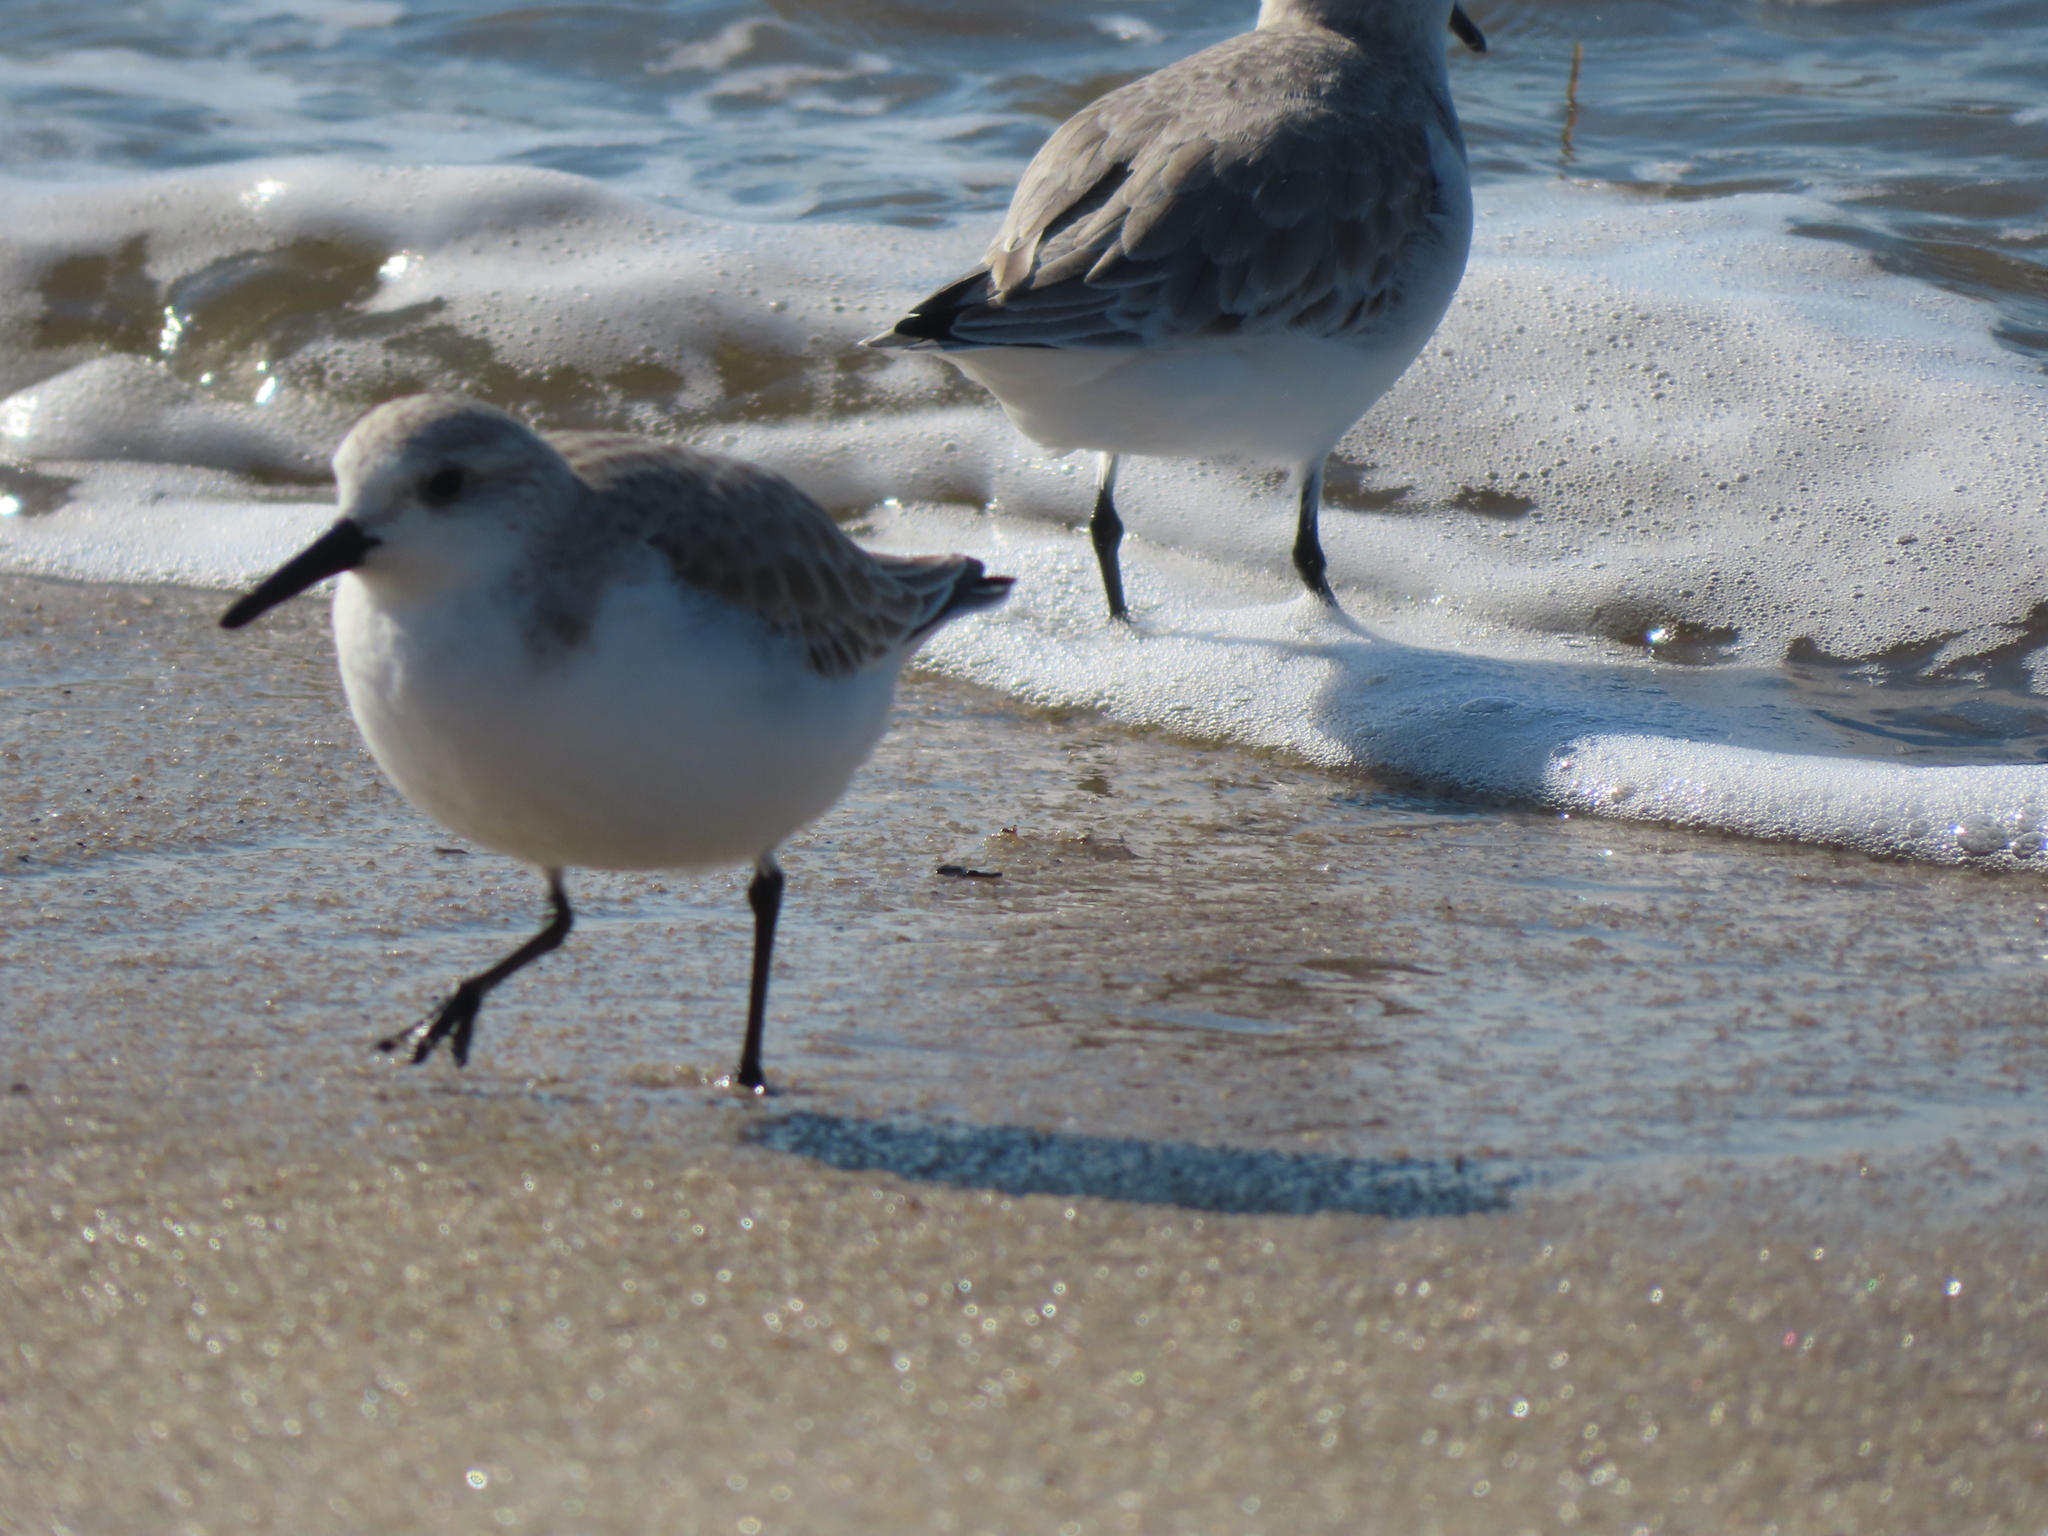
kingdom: Animalia
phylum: Chordata
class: Aves
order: Charadriiformes
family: Scolopacidae
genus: Calidris
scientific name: Calidris alba
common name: Sanderling
